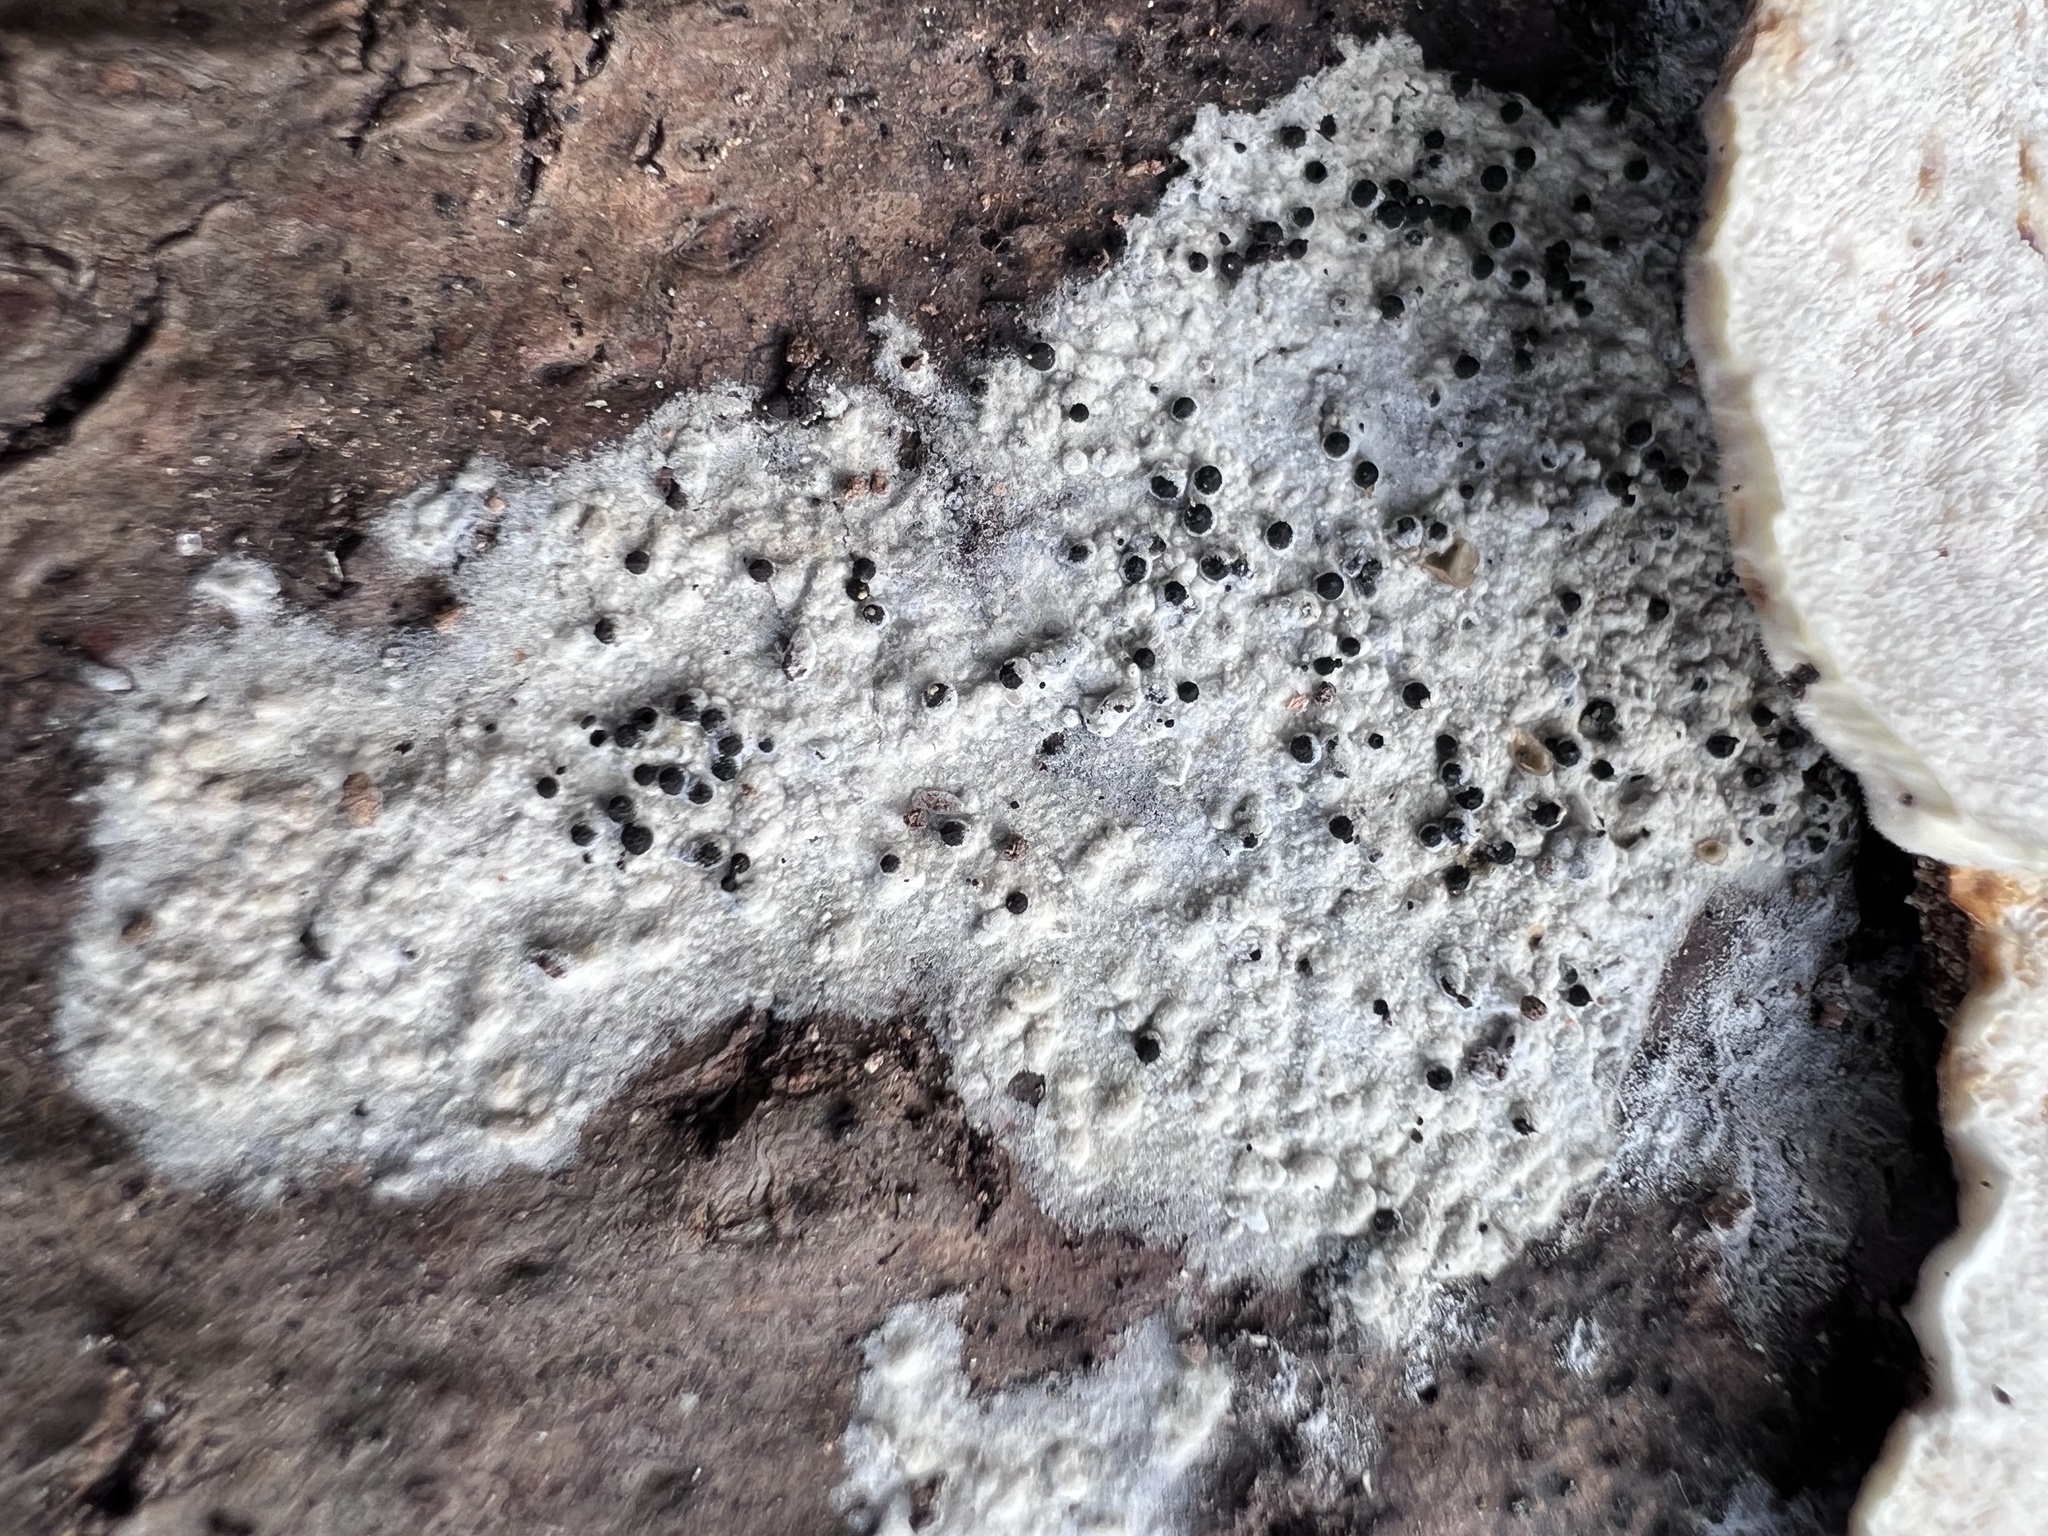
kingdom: Fungi
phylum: Ascomycota
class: Sordariomycetes
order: Sordariales
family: Lasiosphaeridaceae
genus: Lasiosphaeris
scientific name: Lasiosphaeris hirsuta
